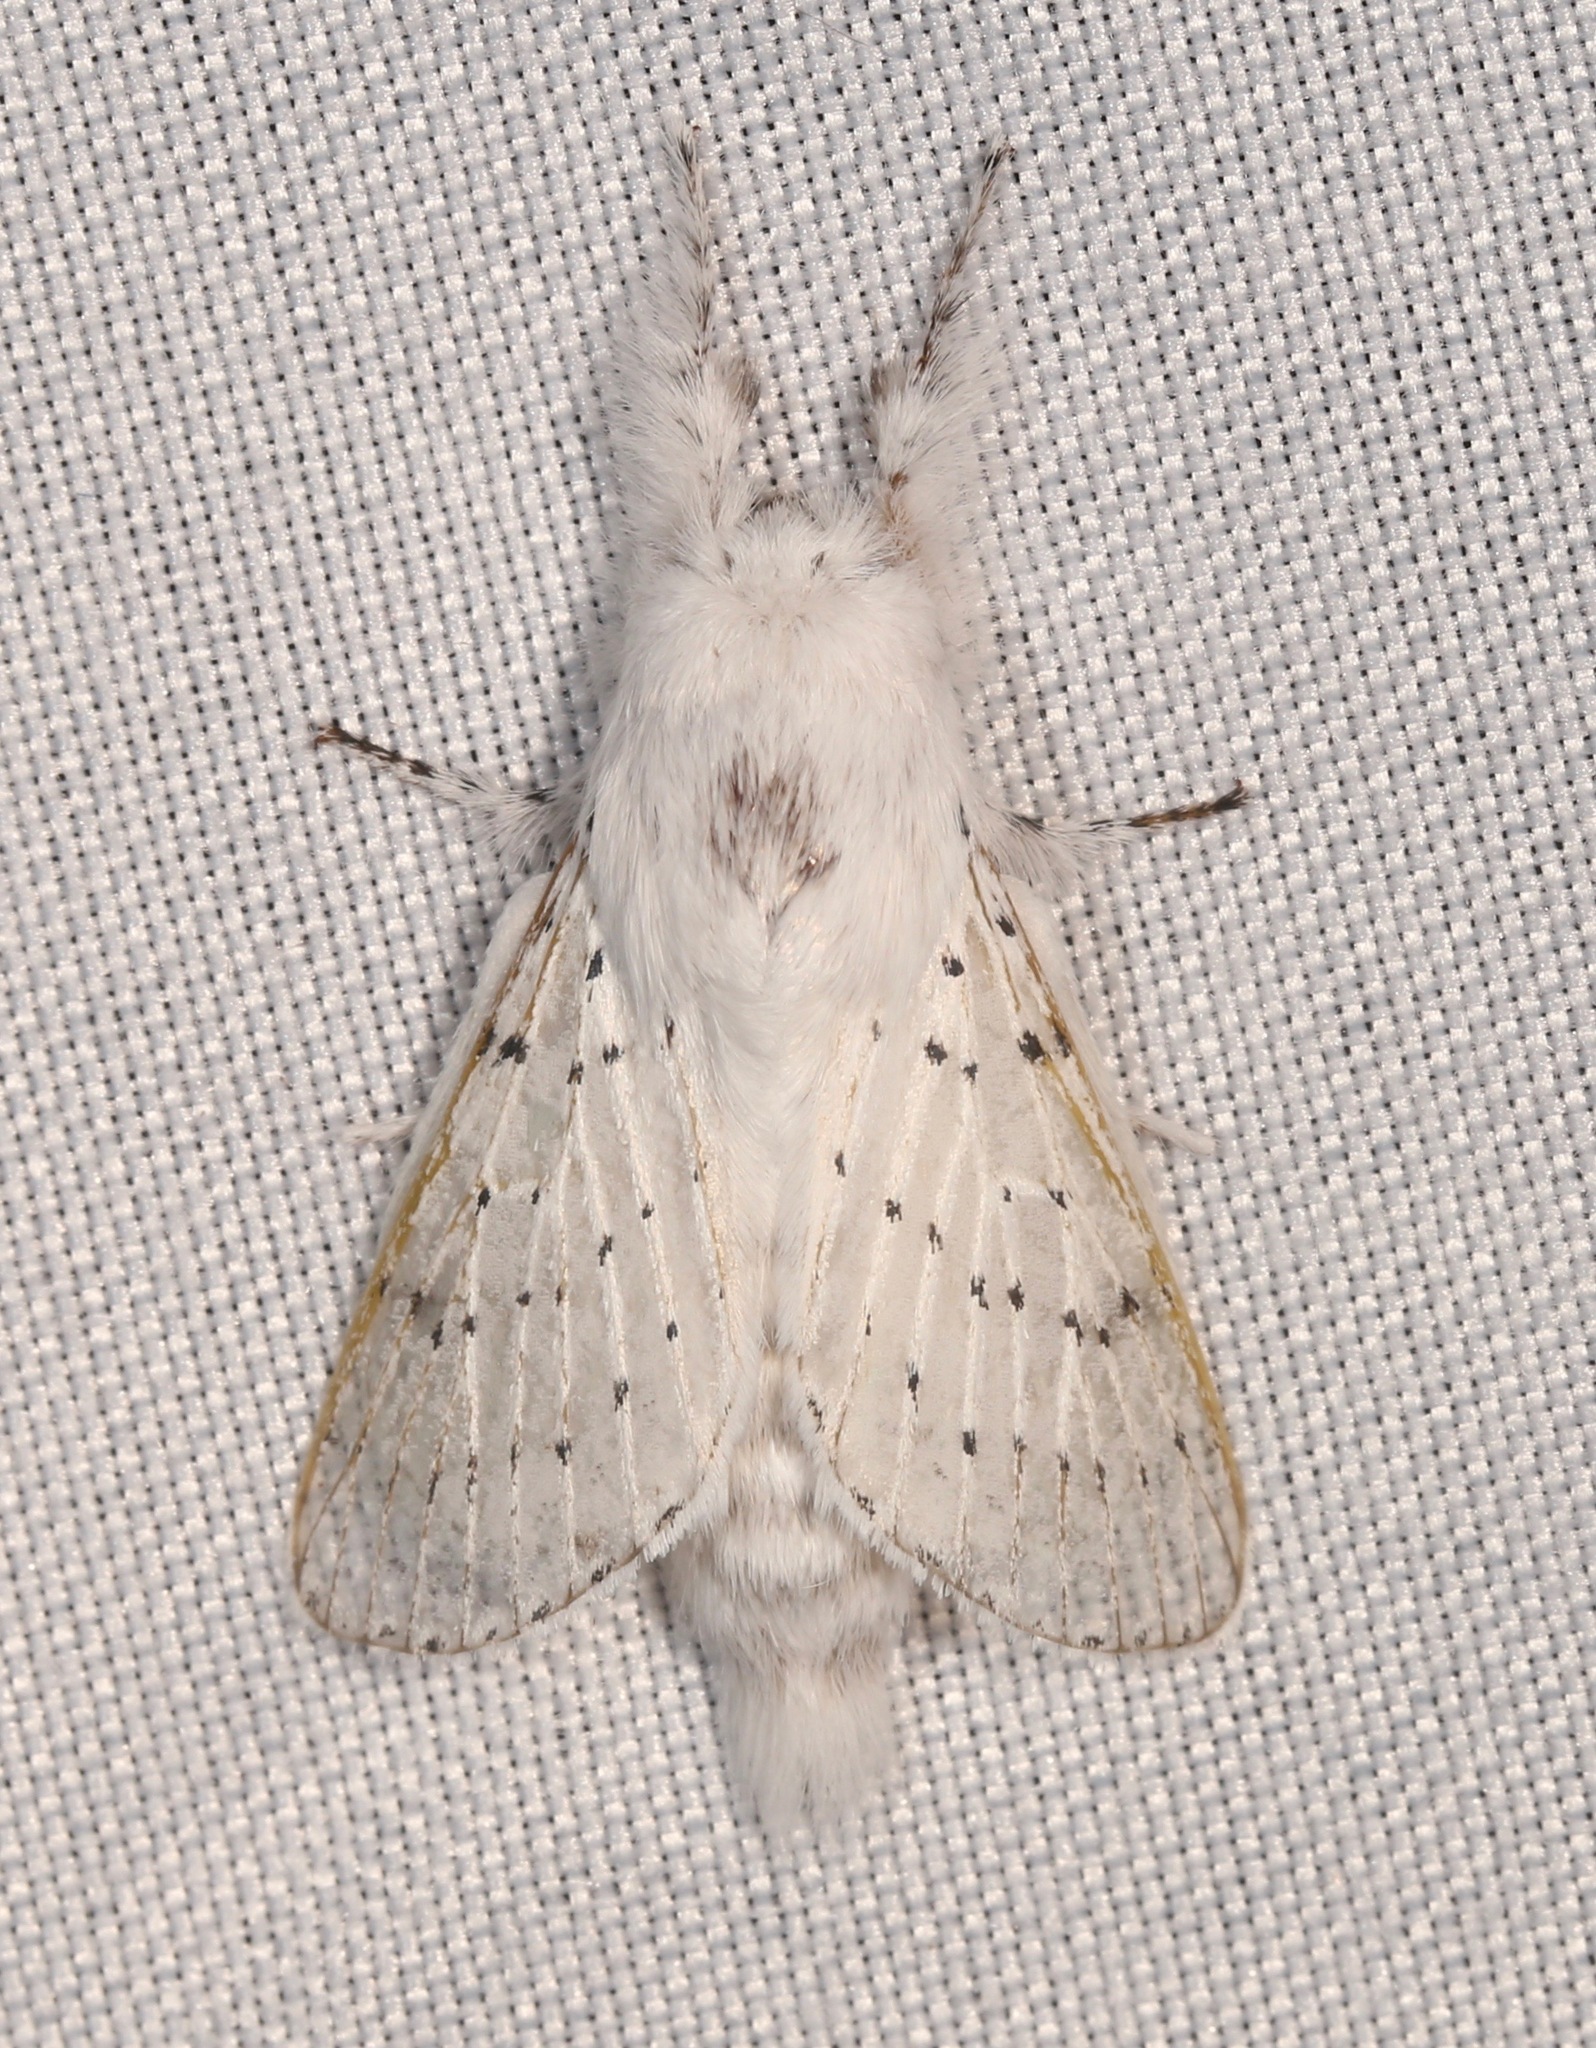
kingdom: Animalia
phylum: Arthropoda
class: Insecta
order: Lepidoptera
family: Lasiocampidae
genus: Artace
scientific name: Artace cribrarius
